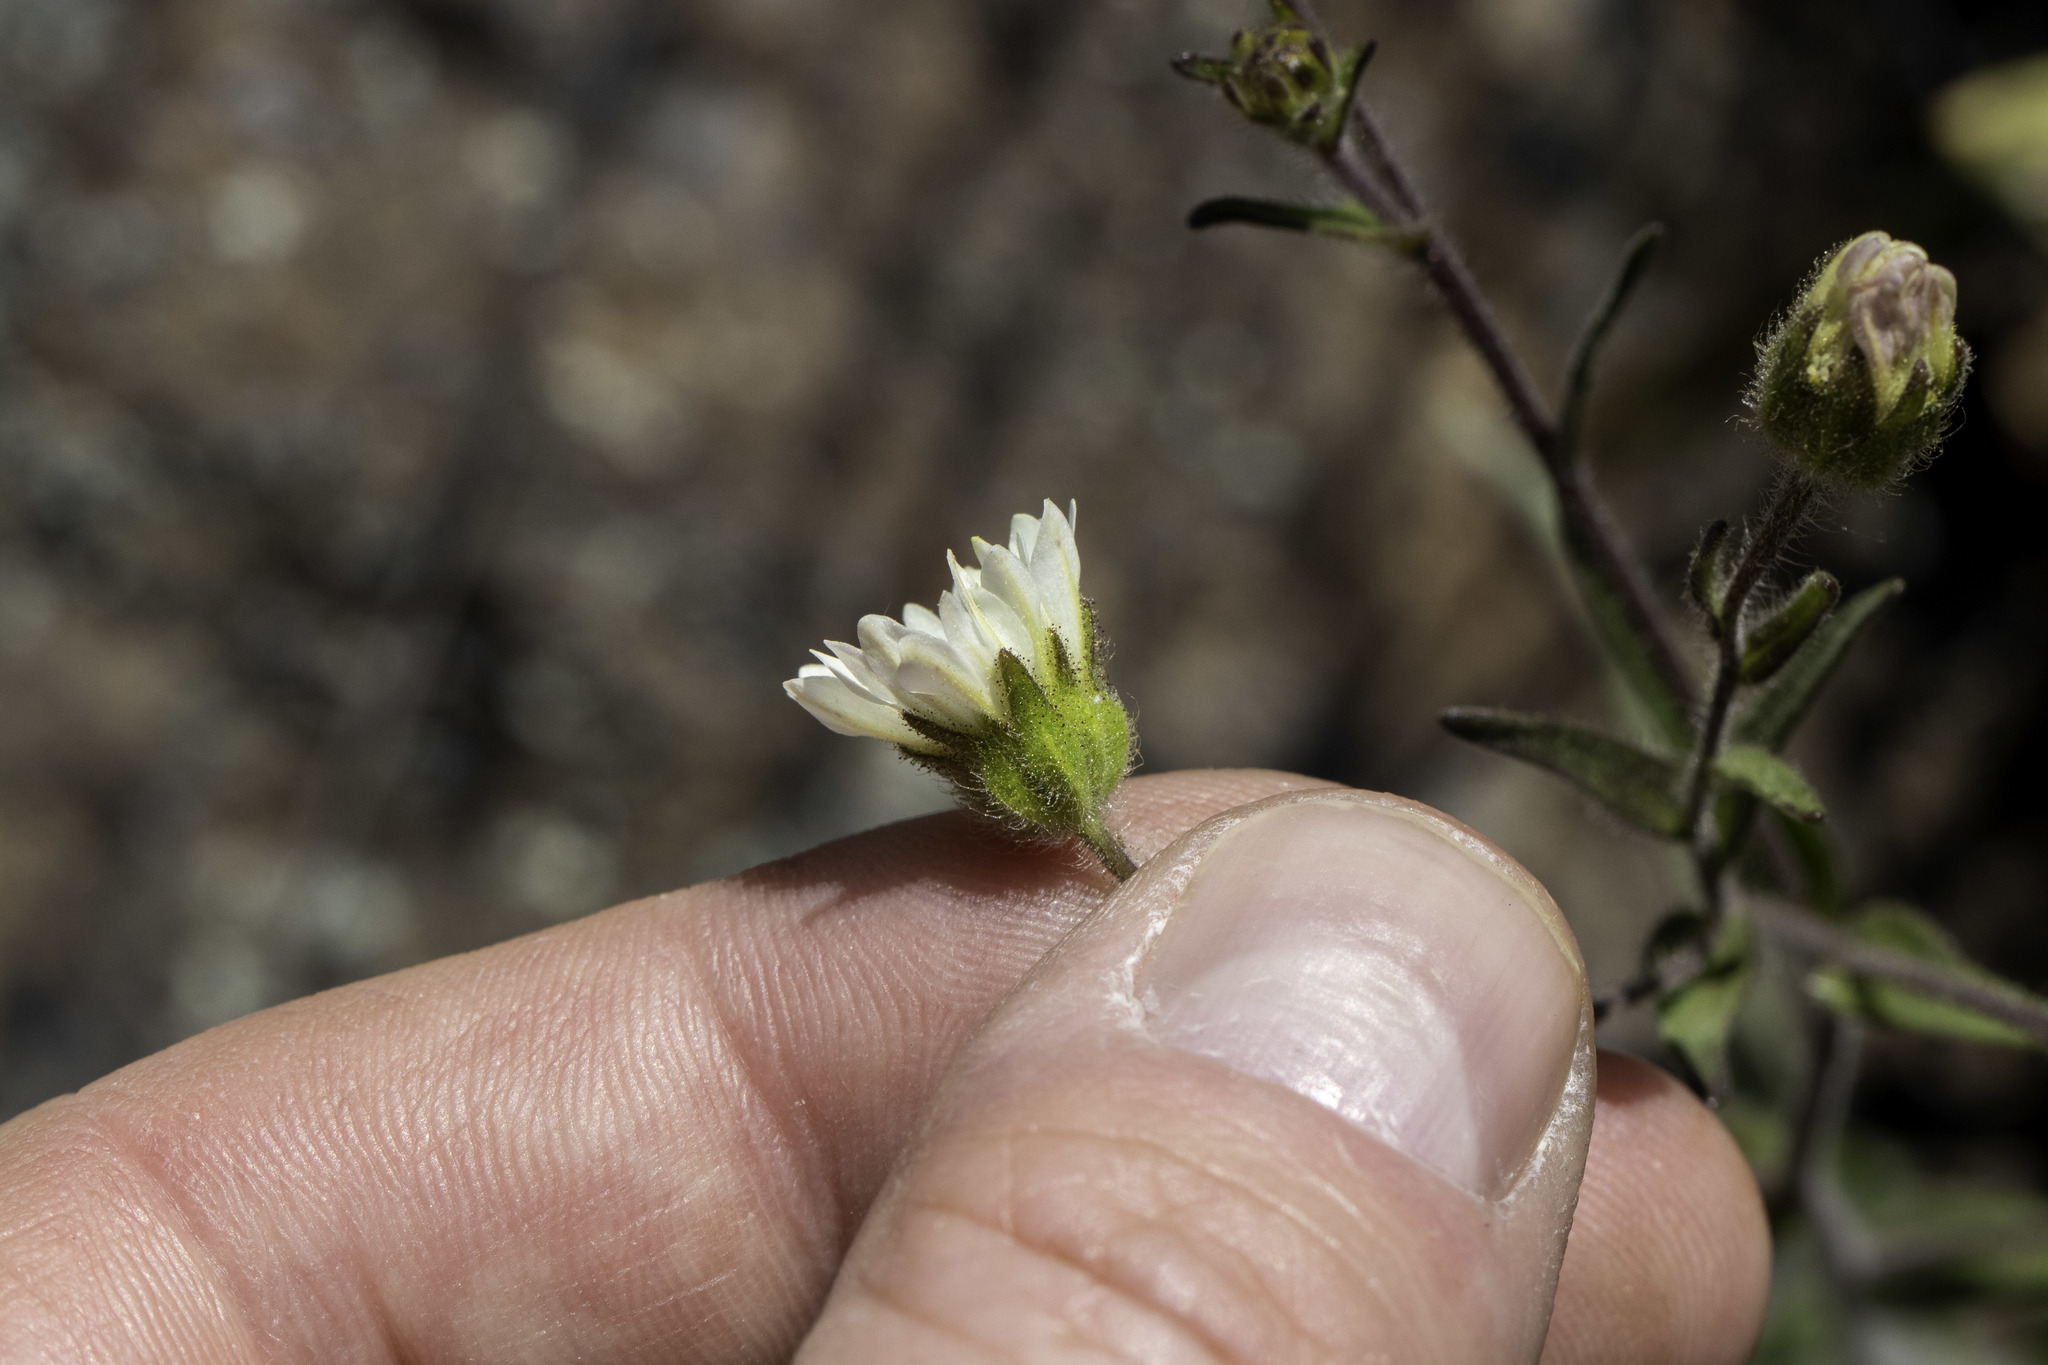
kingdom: Plantae
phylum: Tracheophyta
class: Magnoliopsida
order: Asterales
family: Asteraceae
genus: Hemizonia
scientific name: Hemizonia congesta
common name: Hayfield tarweed
